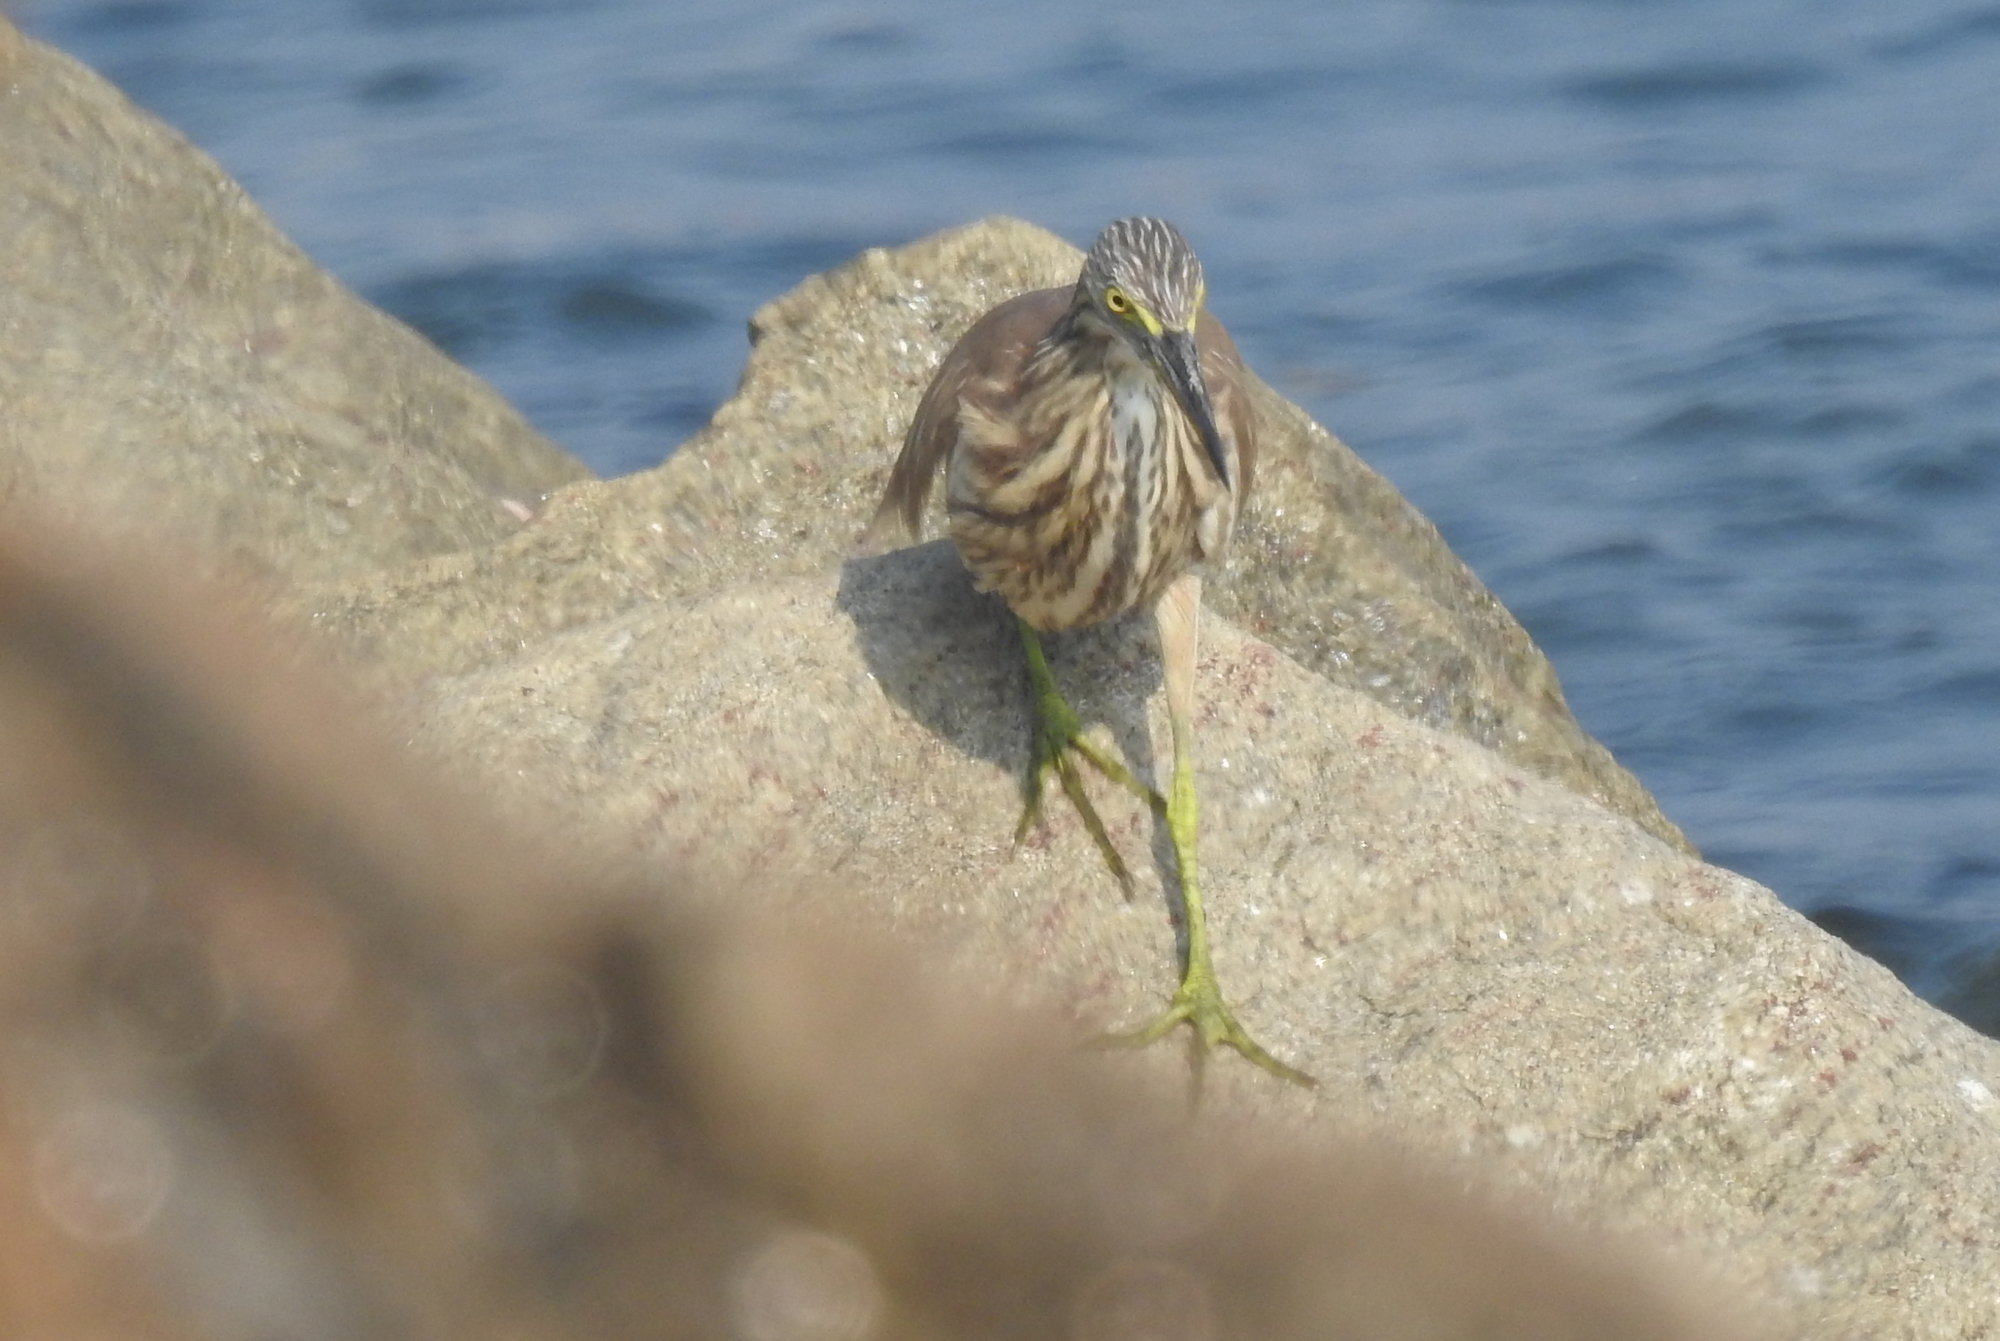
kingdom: Animalia
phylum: Chordata
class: Aves
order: Pelecaniformes
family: Ardeidae
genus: Ardeola
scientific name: Ardeola grayii
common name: Indian pond heron
